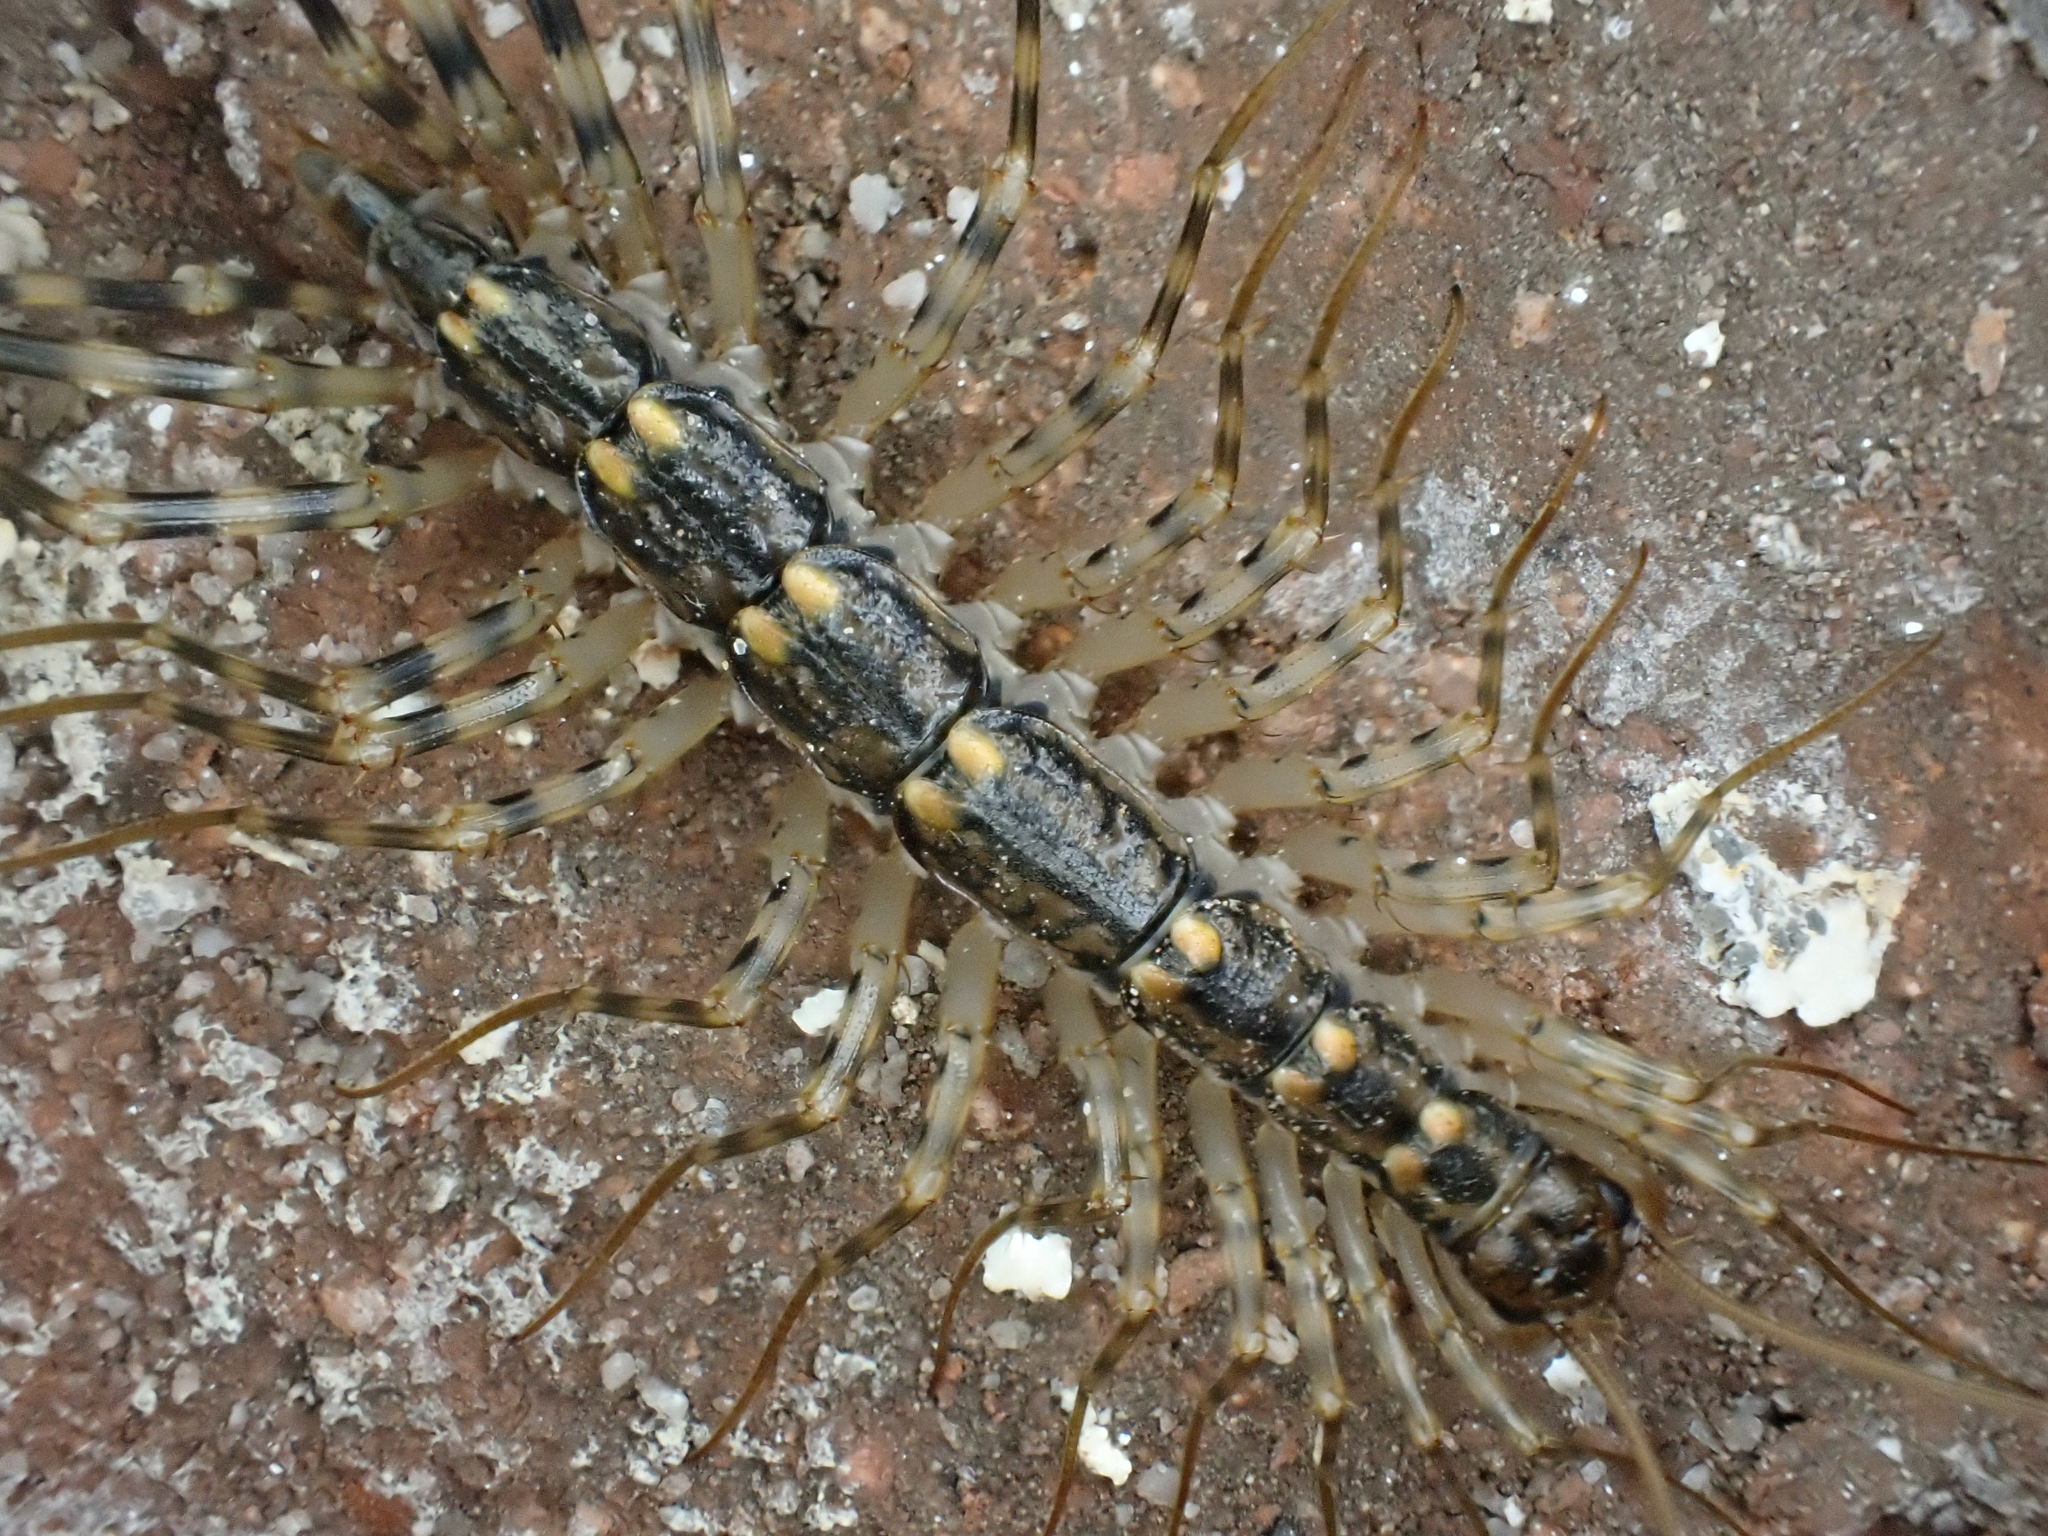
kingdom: Animalia
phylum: Arthropoda
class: Chilopoda
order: Scutigeromorpha
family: Scutigeridae
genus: Scutigera
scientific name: Scutigera coleoptrata
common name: House centipede
